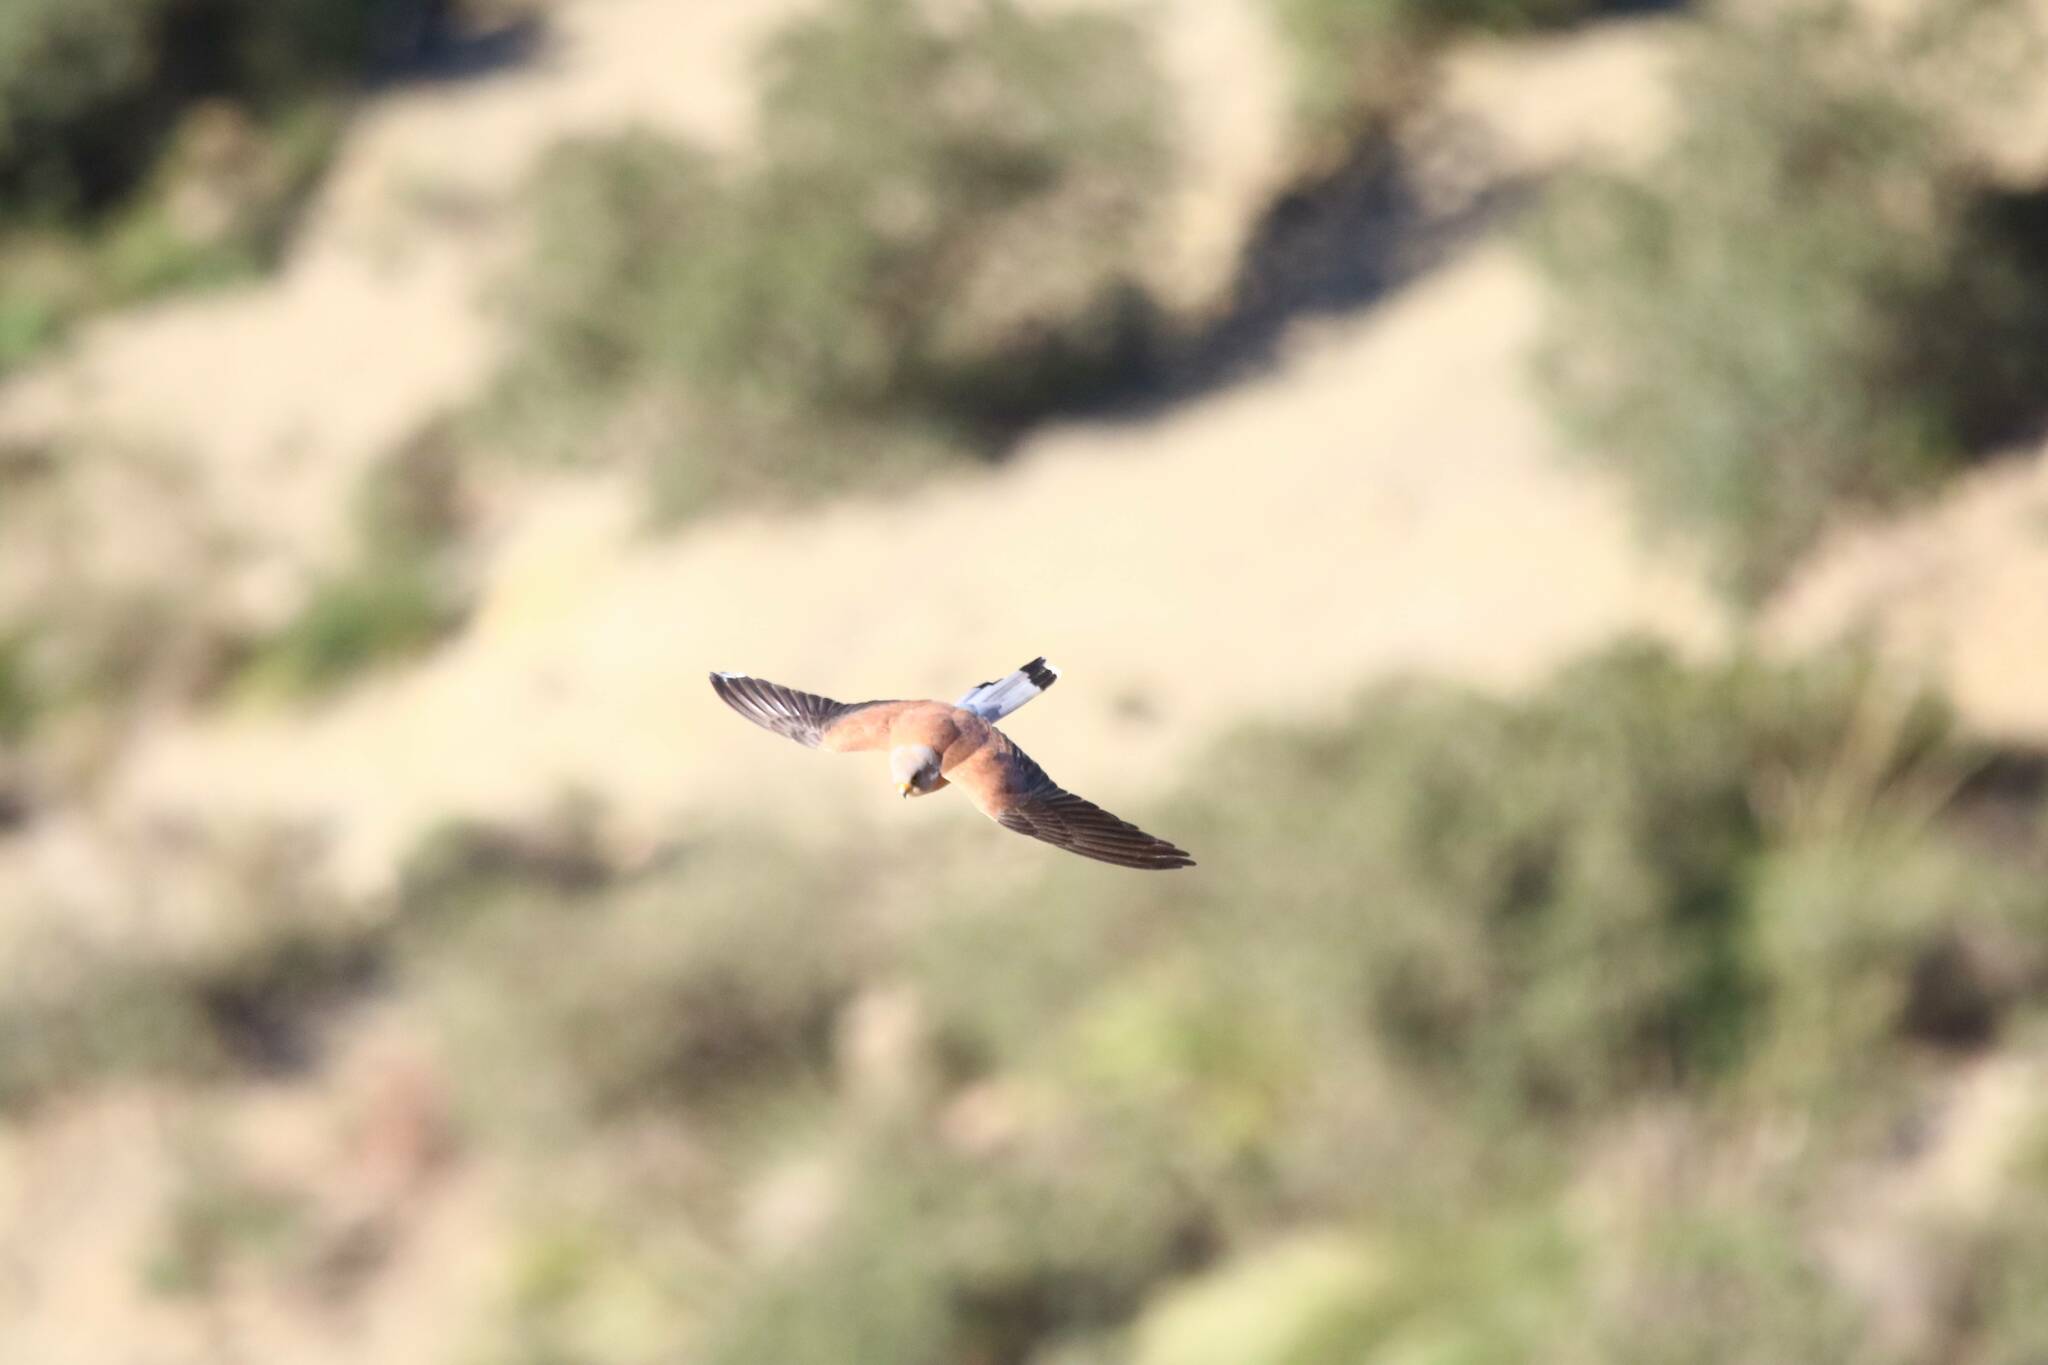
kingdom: Animalia
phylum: Chordata
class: Aves
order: Falconiformes
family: Falconidae
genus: Falco
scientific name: Falco naumanni
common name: Lesser kestrel
